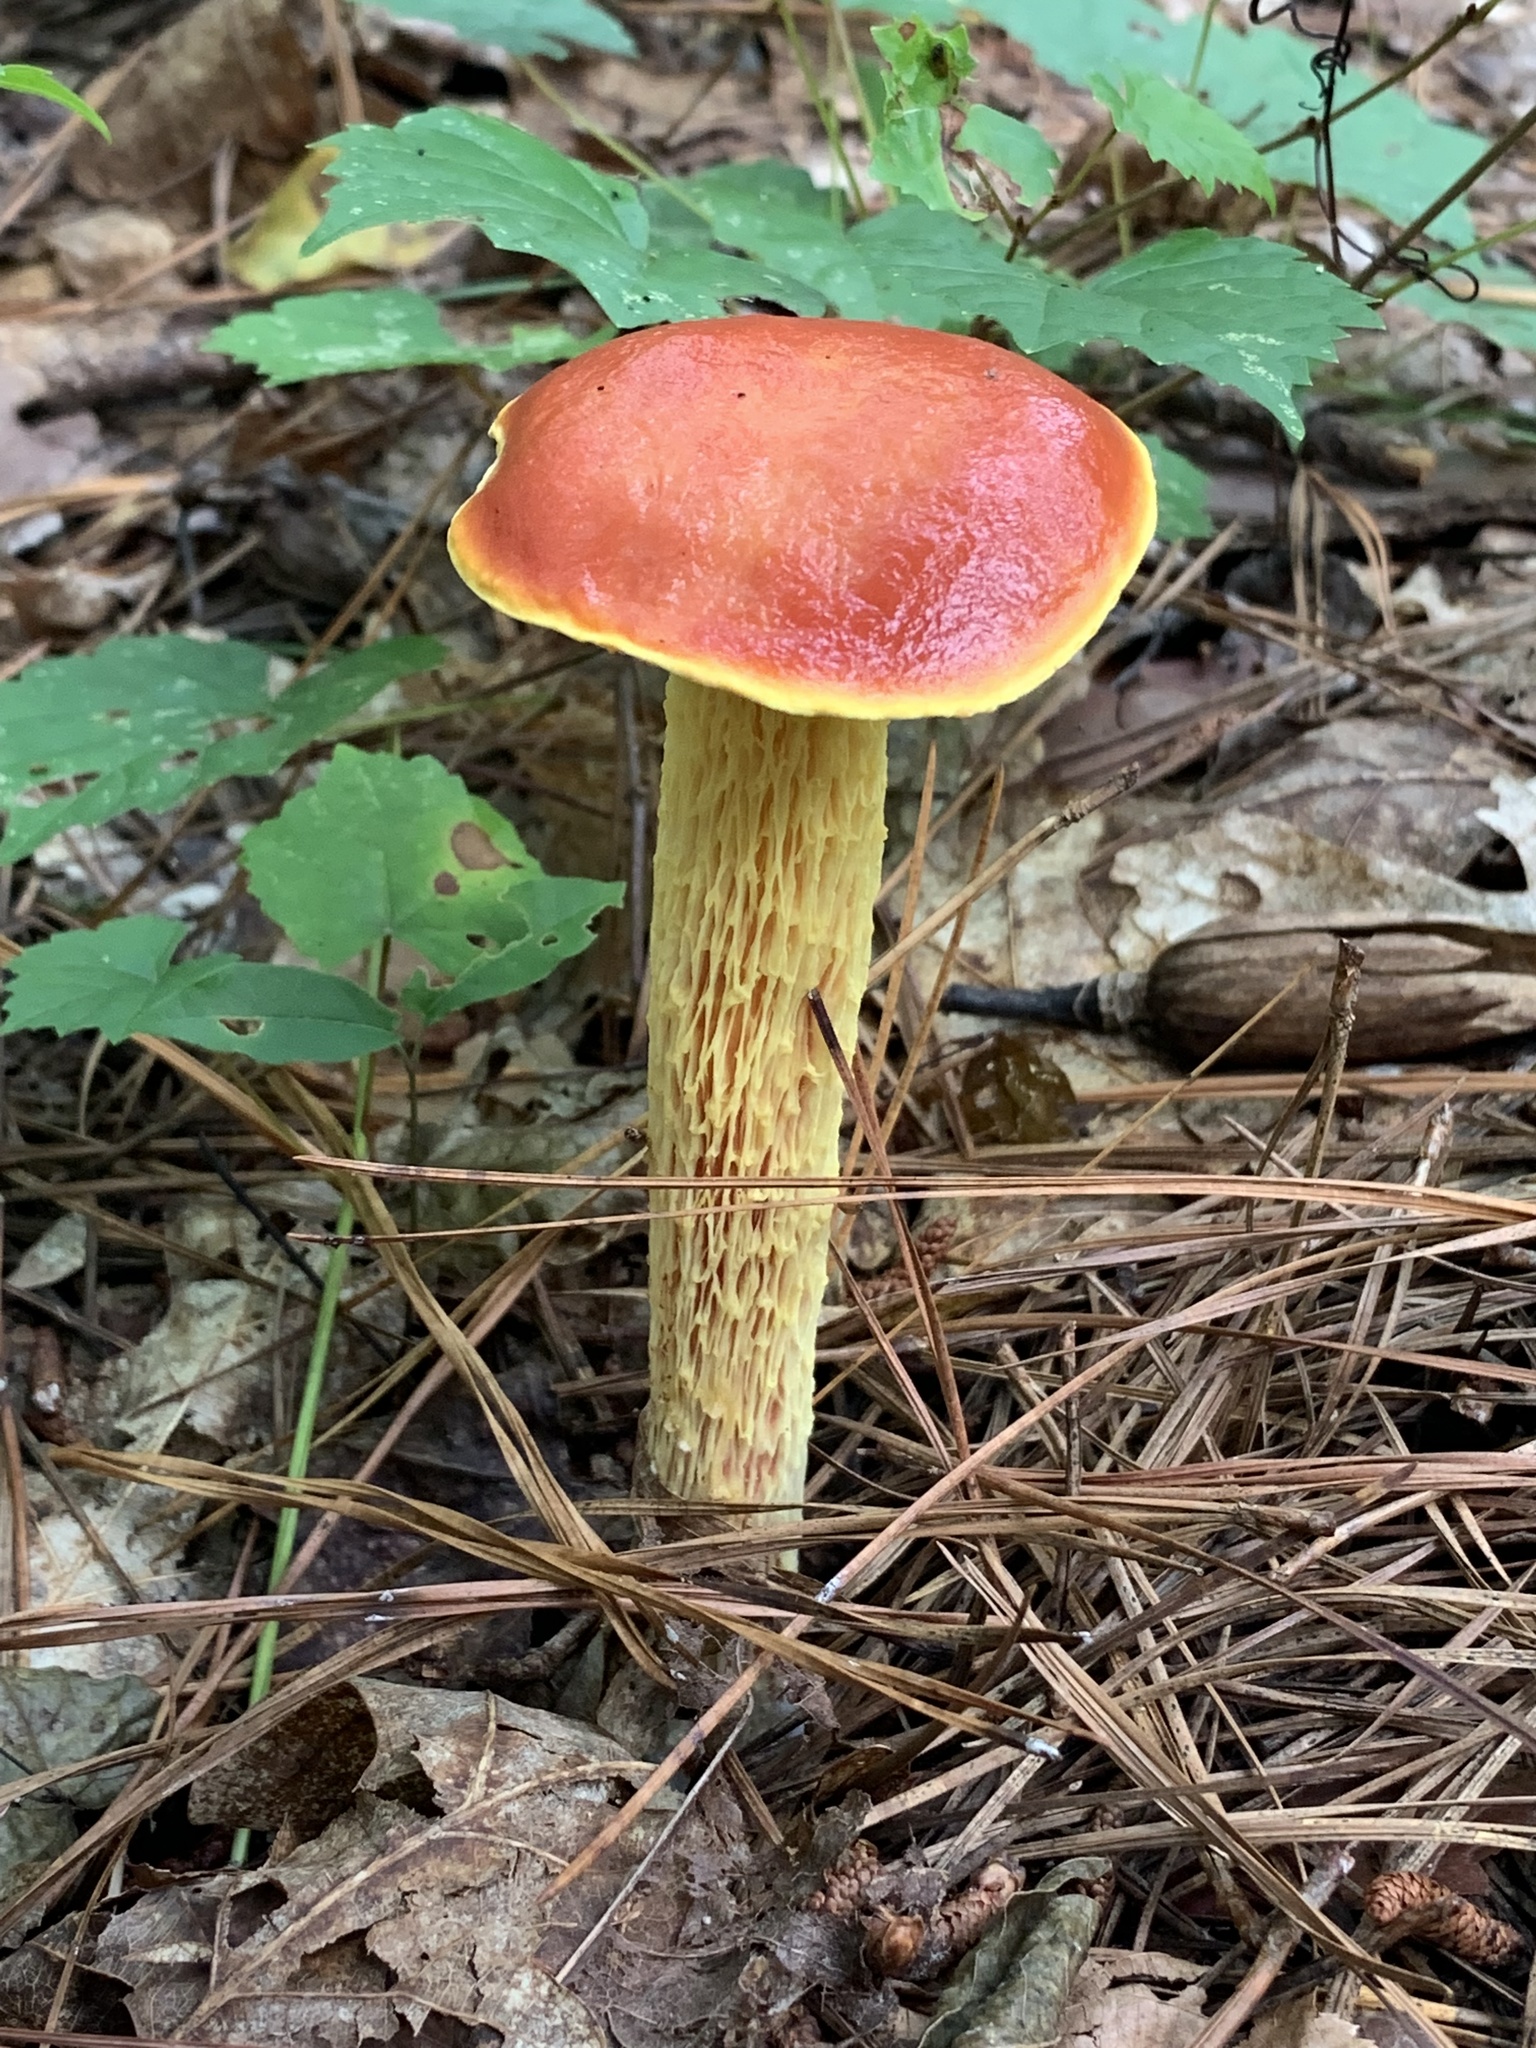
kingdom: Fungi
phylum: Basidiomycota
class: Agaricomycetes
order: Boletales
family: Boletaceae
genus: Aureoboletus
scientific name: Aureoboletus betula
